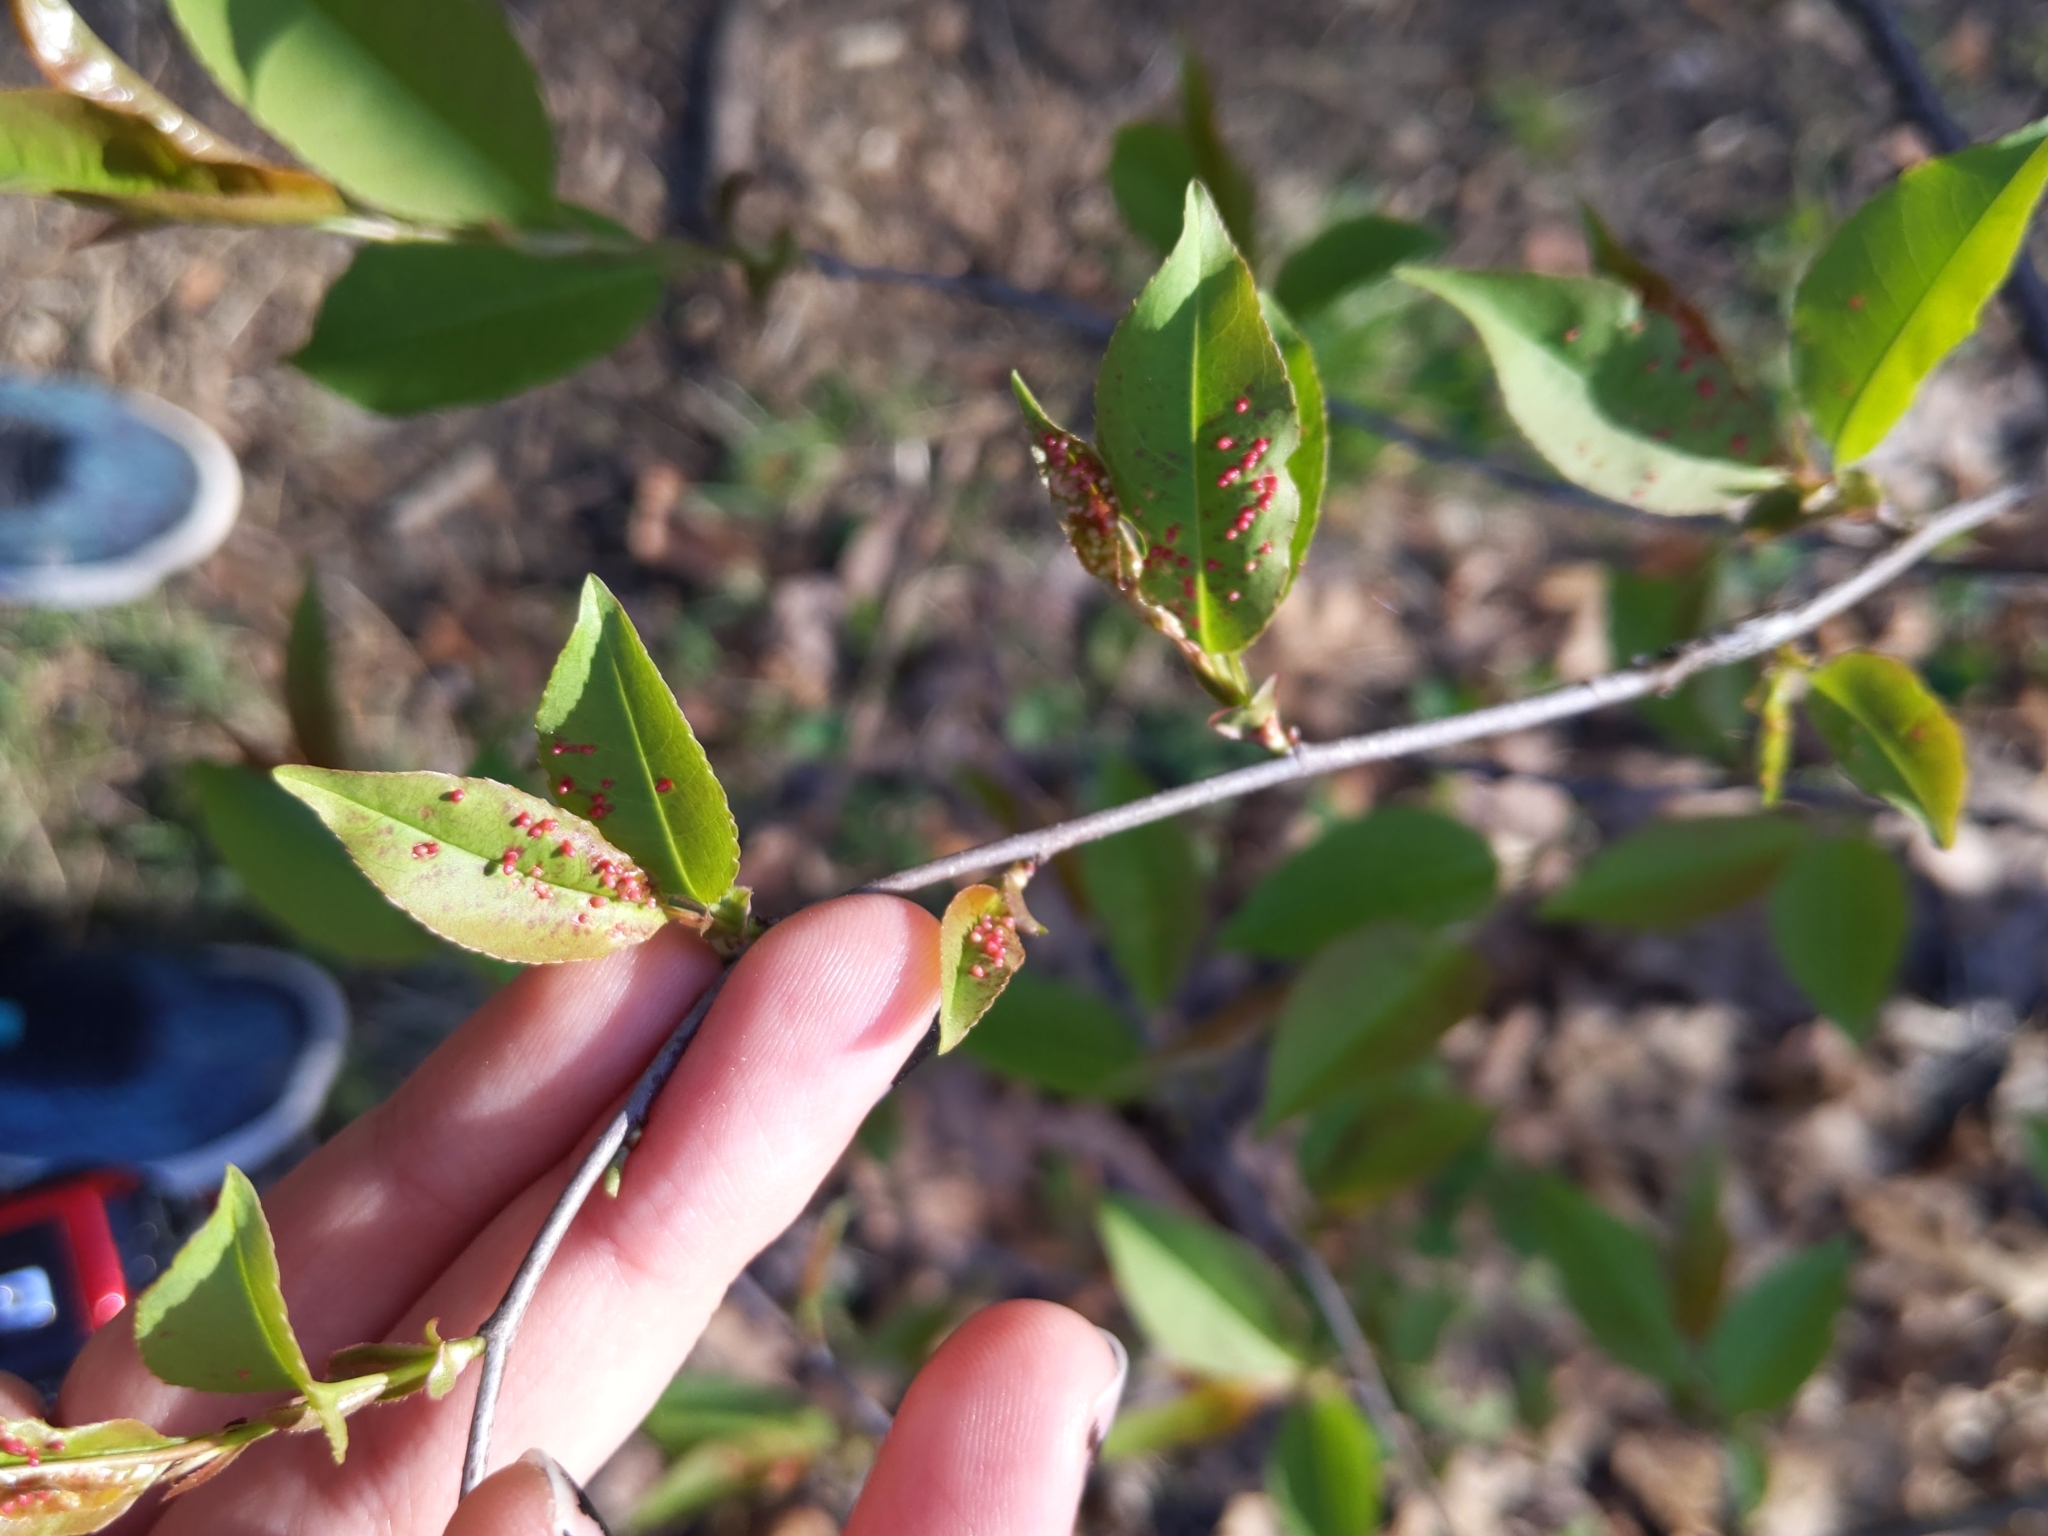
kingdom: Animalia
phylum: Arthropoda
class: Arachnida
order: Trombidiformes
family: Eriophyidae
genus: Eriophyes
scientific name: Eriophyes
